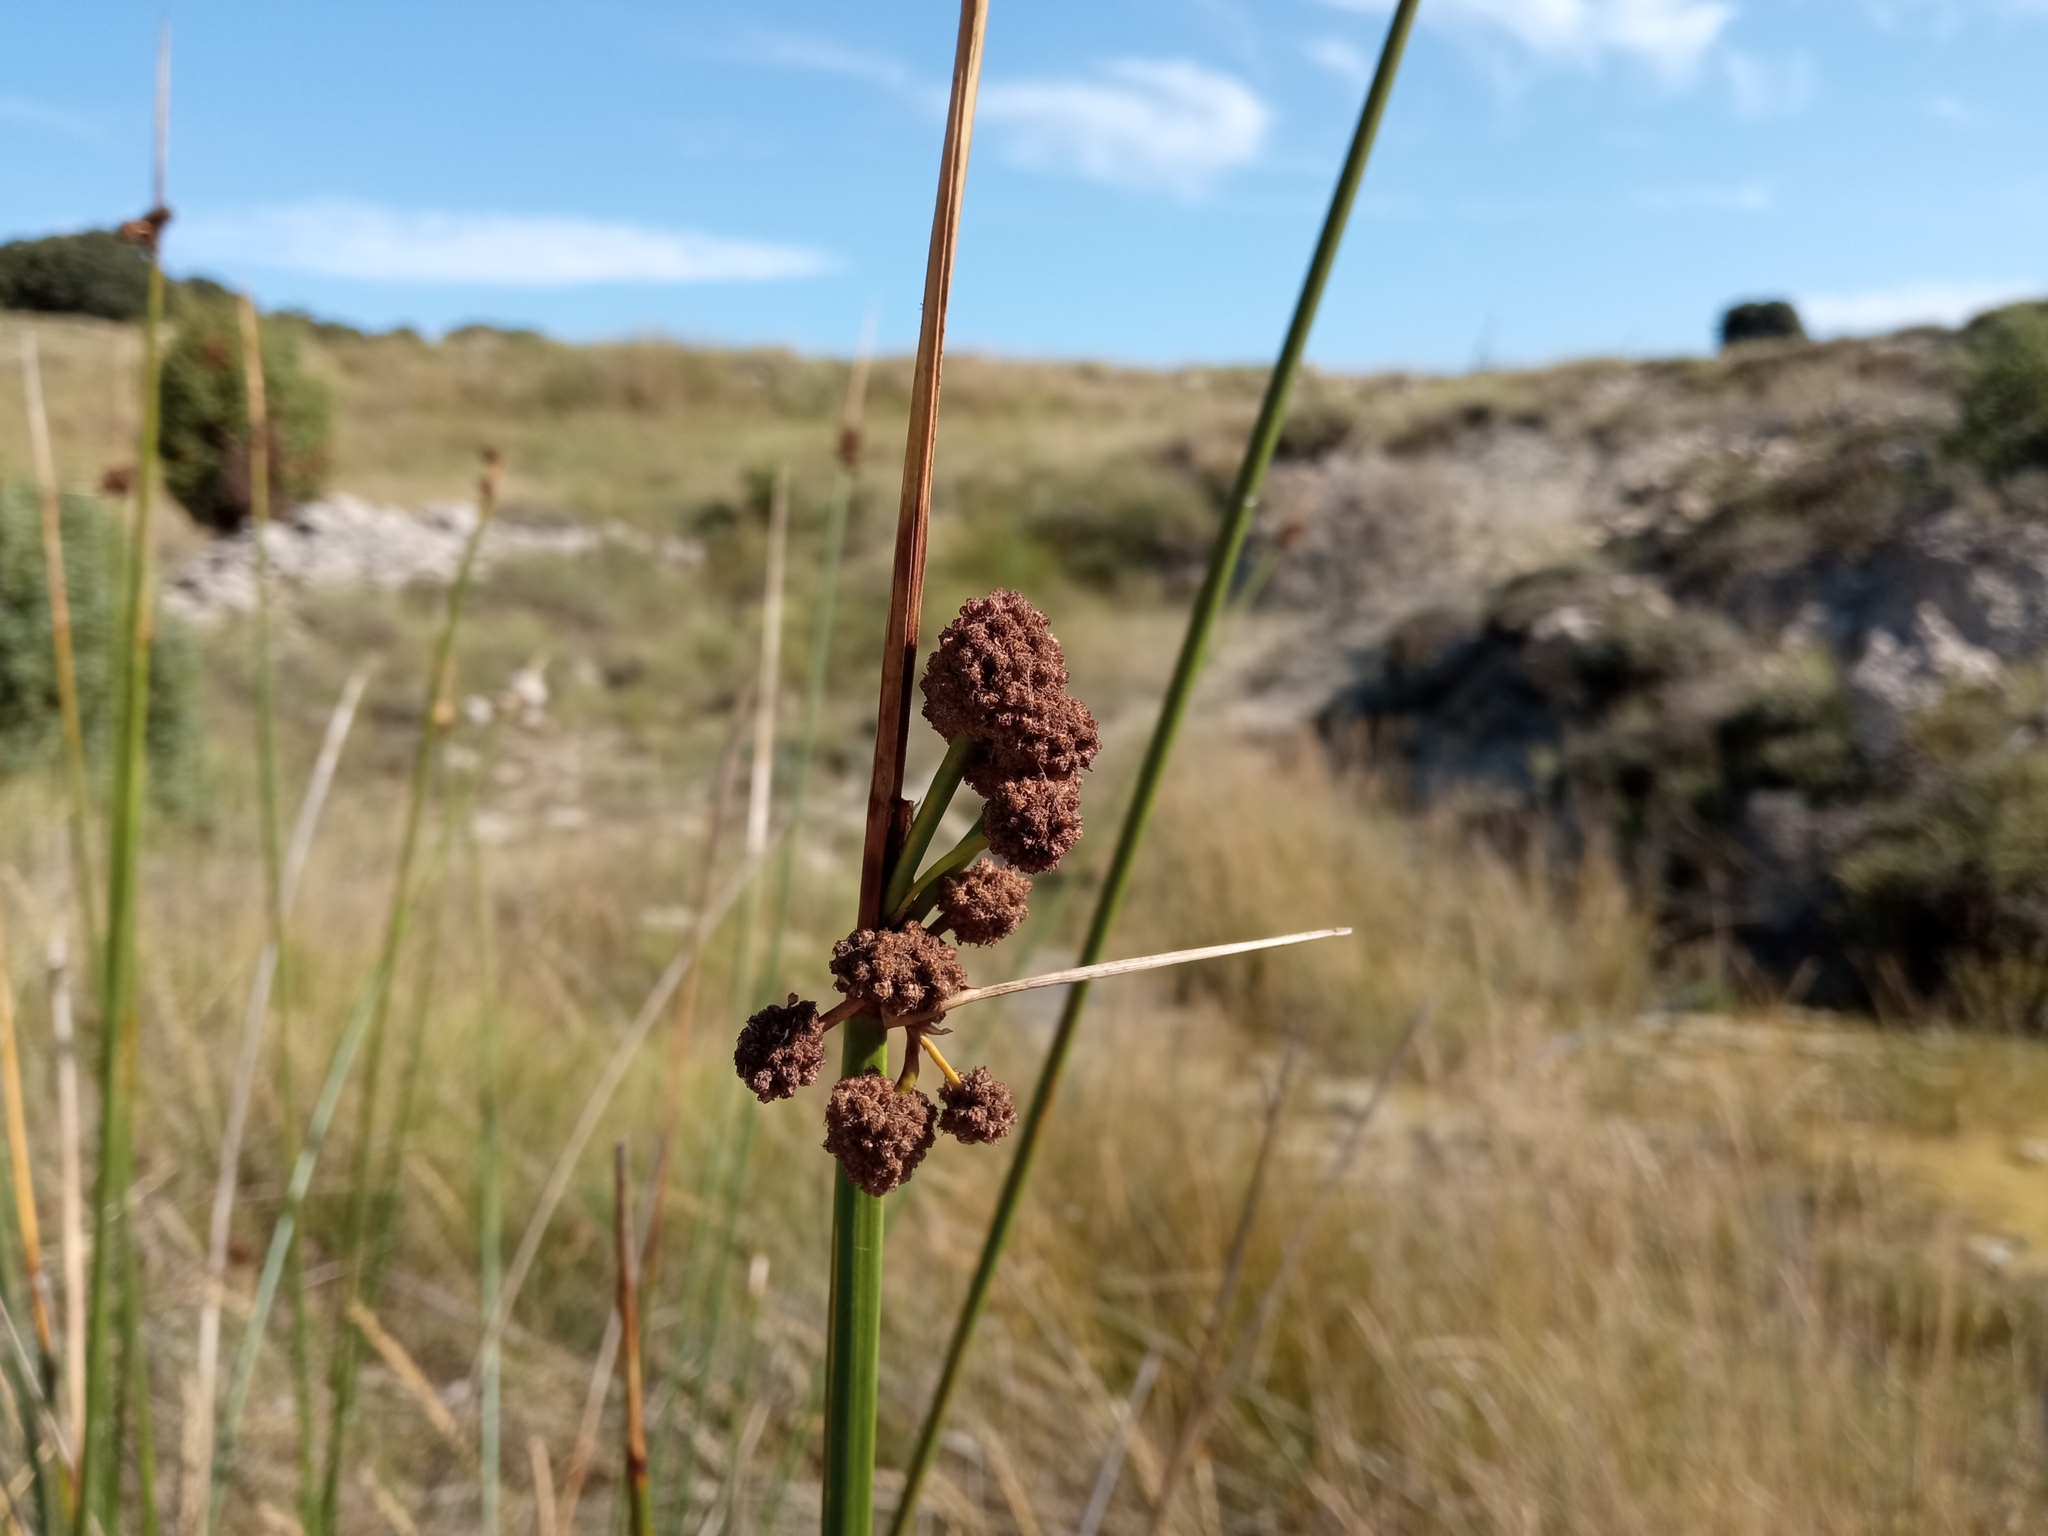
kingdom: Plantae
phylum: Tracheophyta
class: Liliopsida
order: Poales
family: Cyperaceae
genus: Scirpoides
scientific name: Scirpoides holoschoenus
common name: Round-headed club-rush
